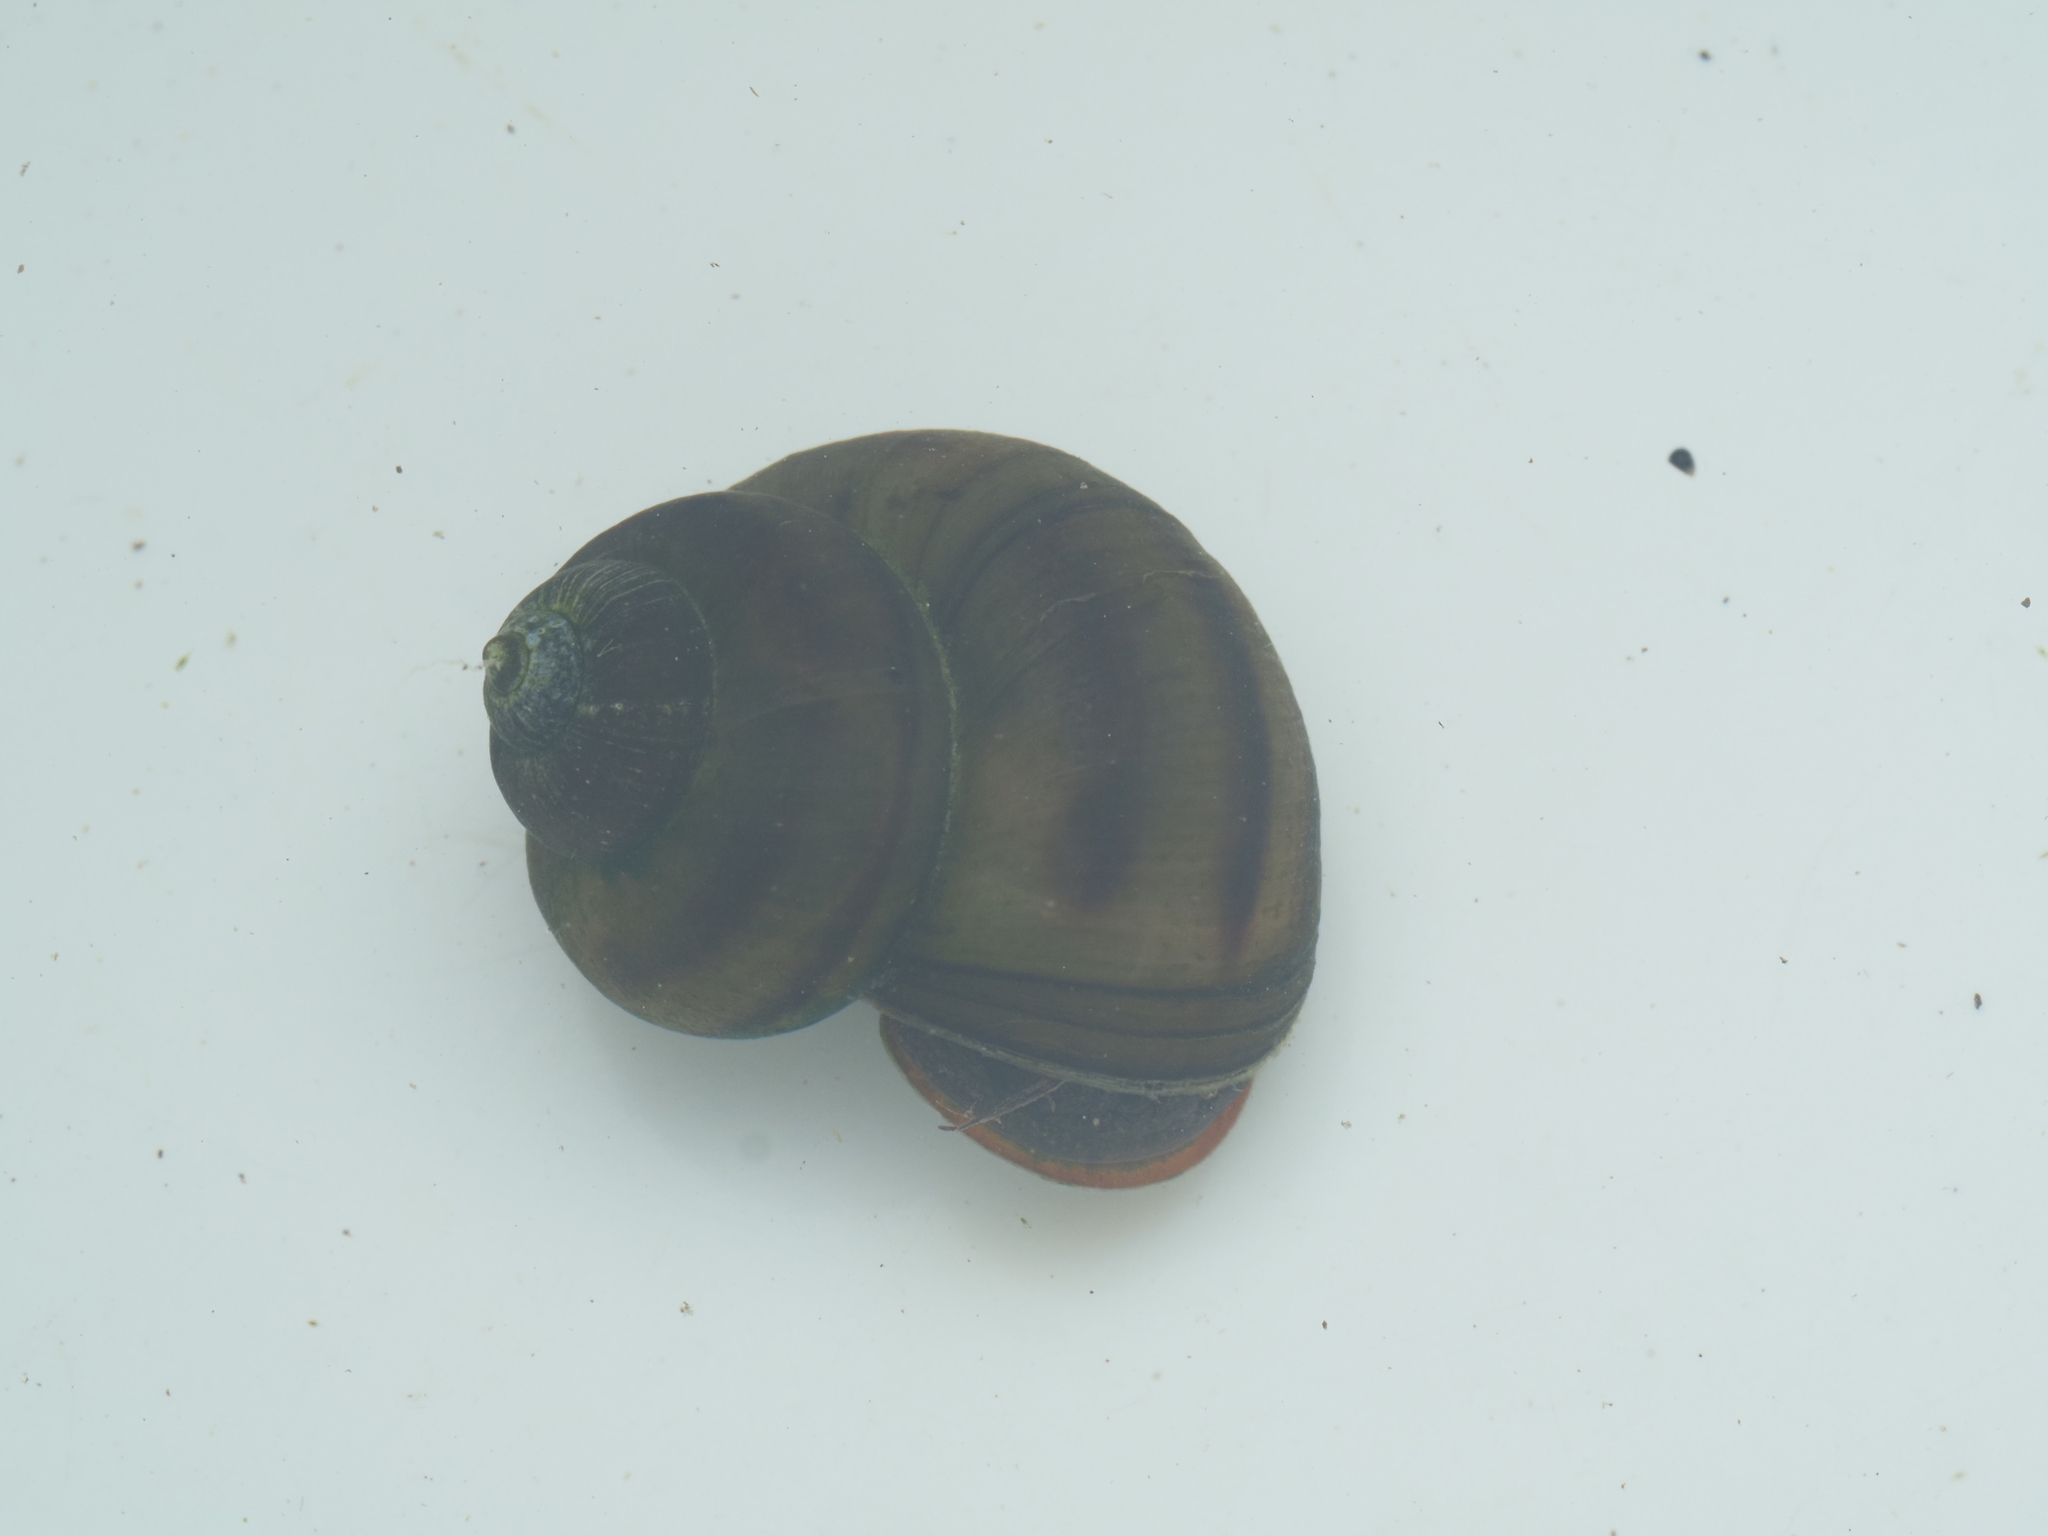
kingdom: Animalia
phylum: Mollusca
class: Gastropoda
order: Architaenioglossa
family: Viviparidae
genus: Viviparus
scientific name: Viviparus contectus
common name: Lister's river snail
